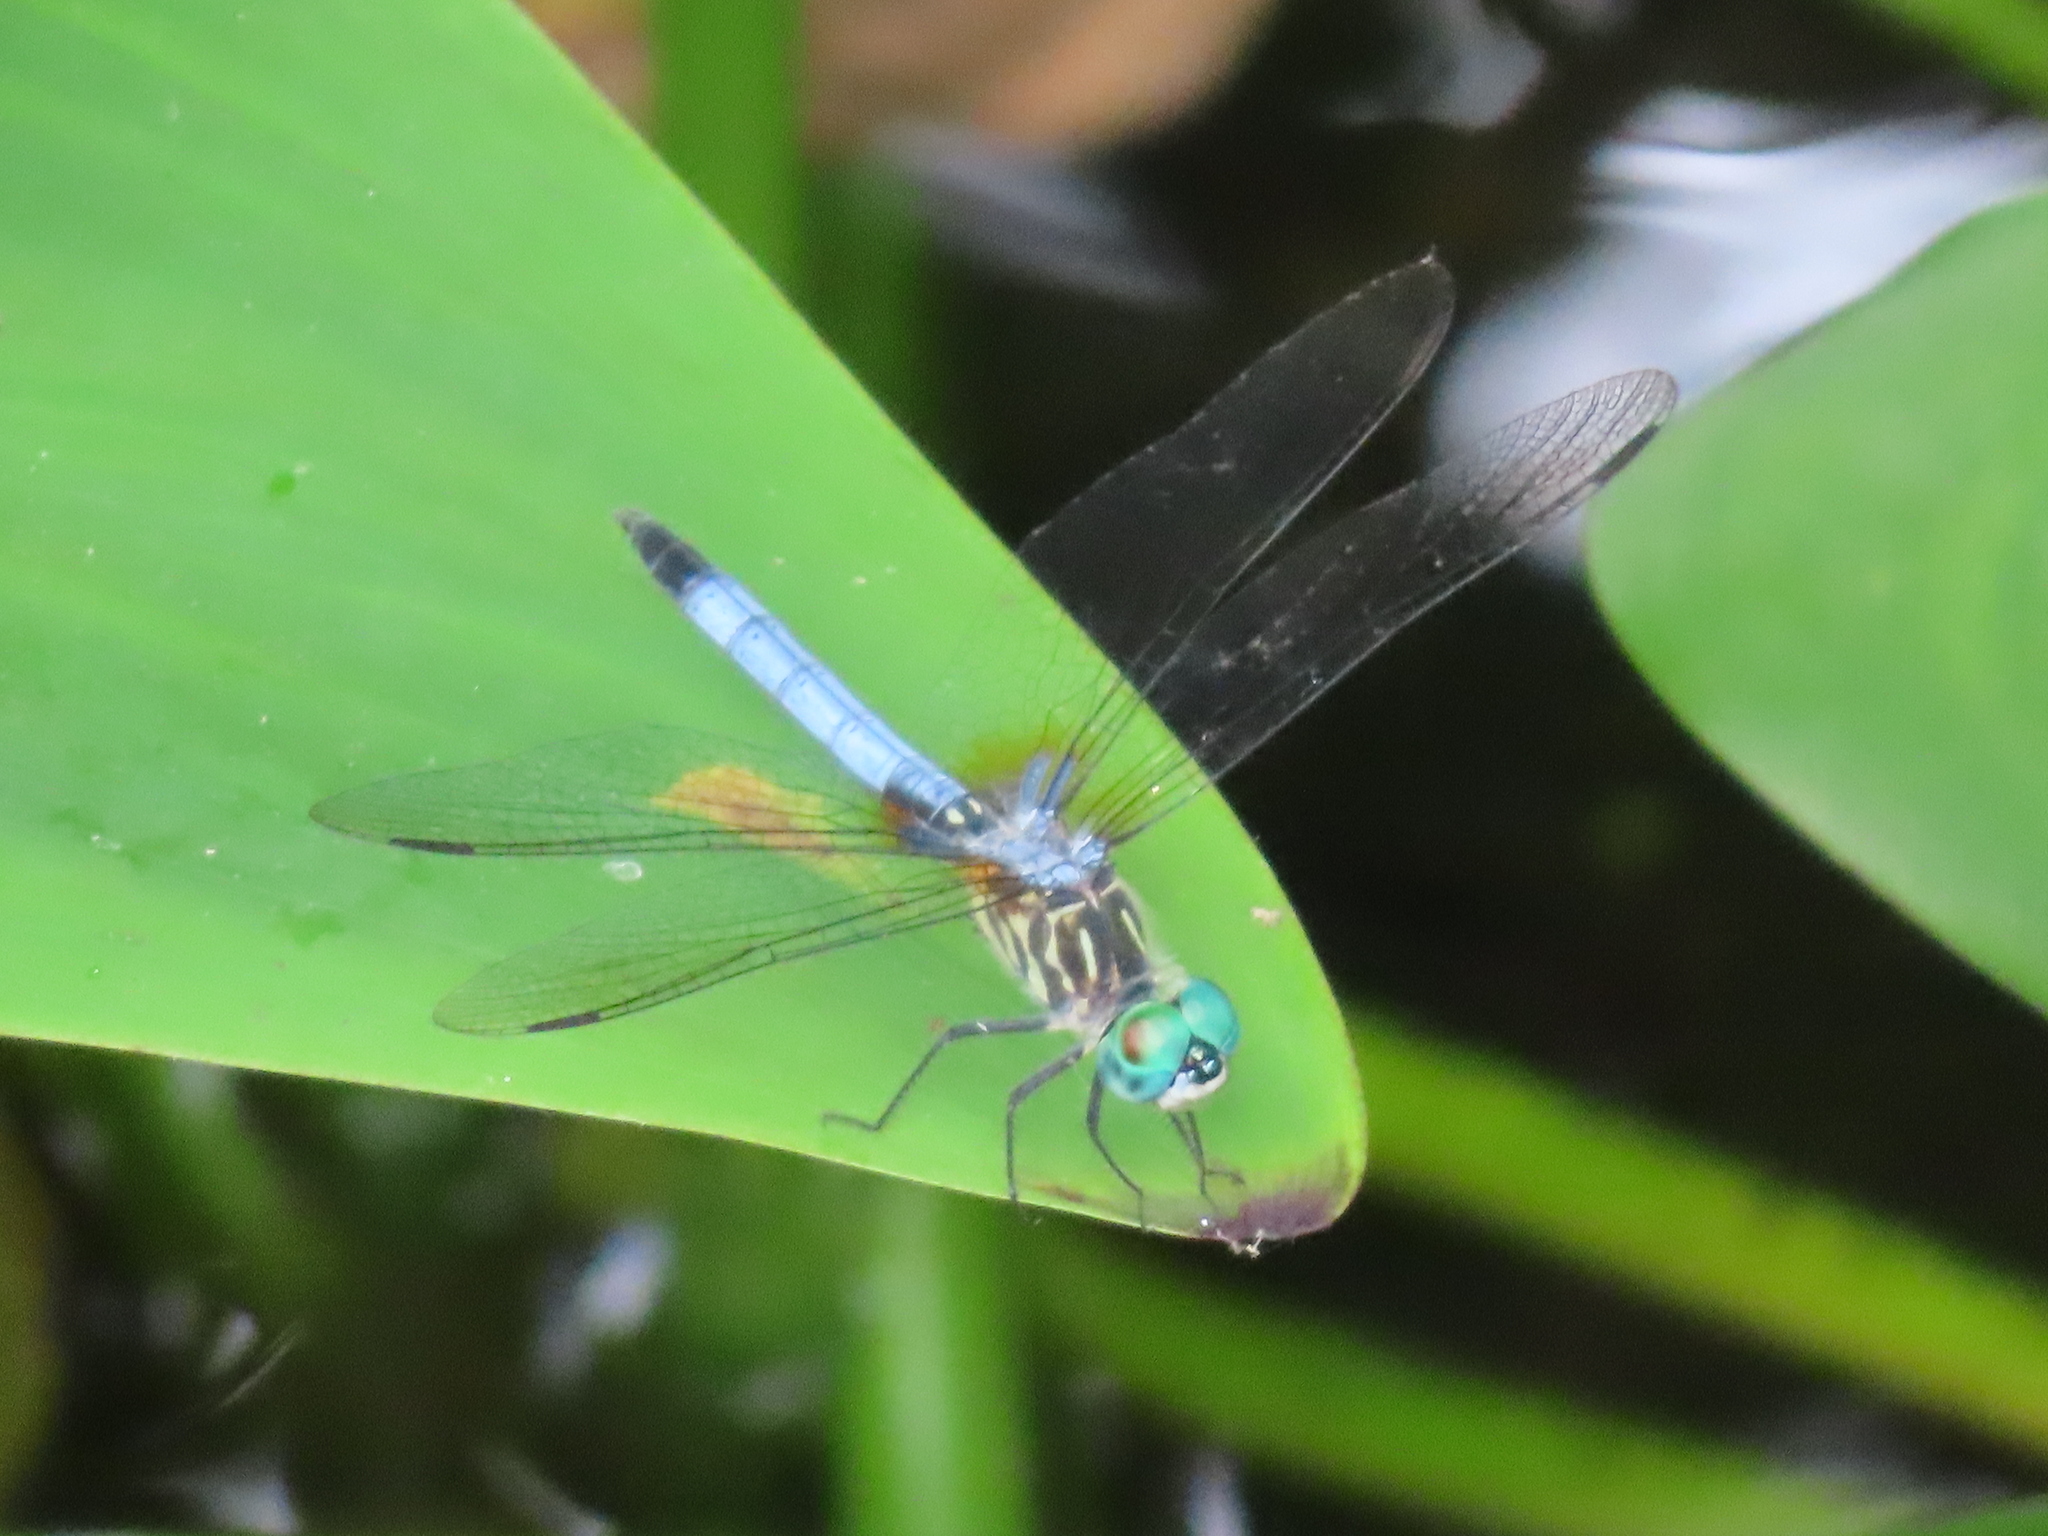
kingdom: Animalia
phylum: Arthropoda
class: Insecta
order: Odonata
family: Libellulidae
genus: Pachydiplax
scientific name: Pachydiplax longipennis
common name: Blue dasher
